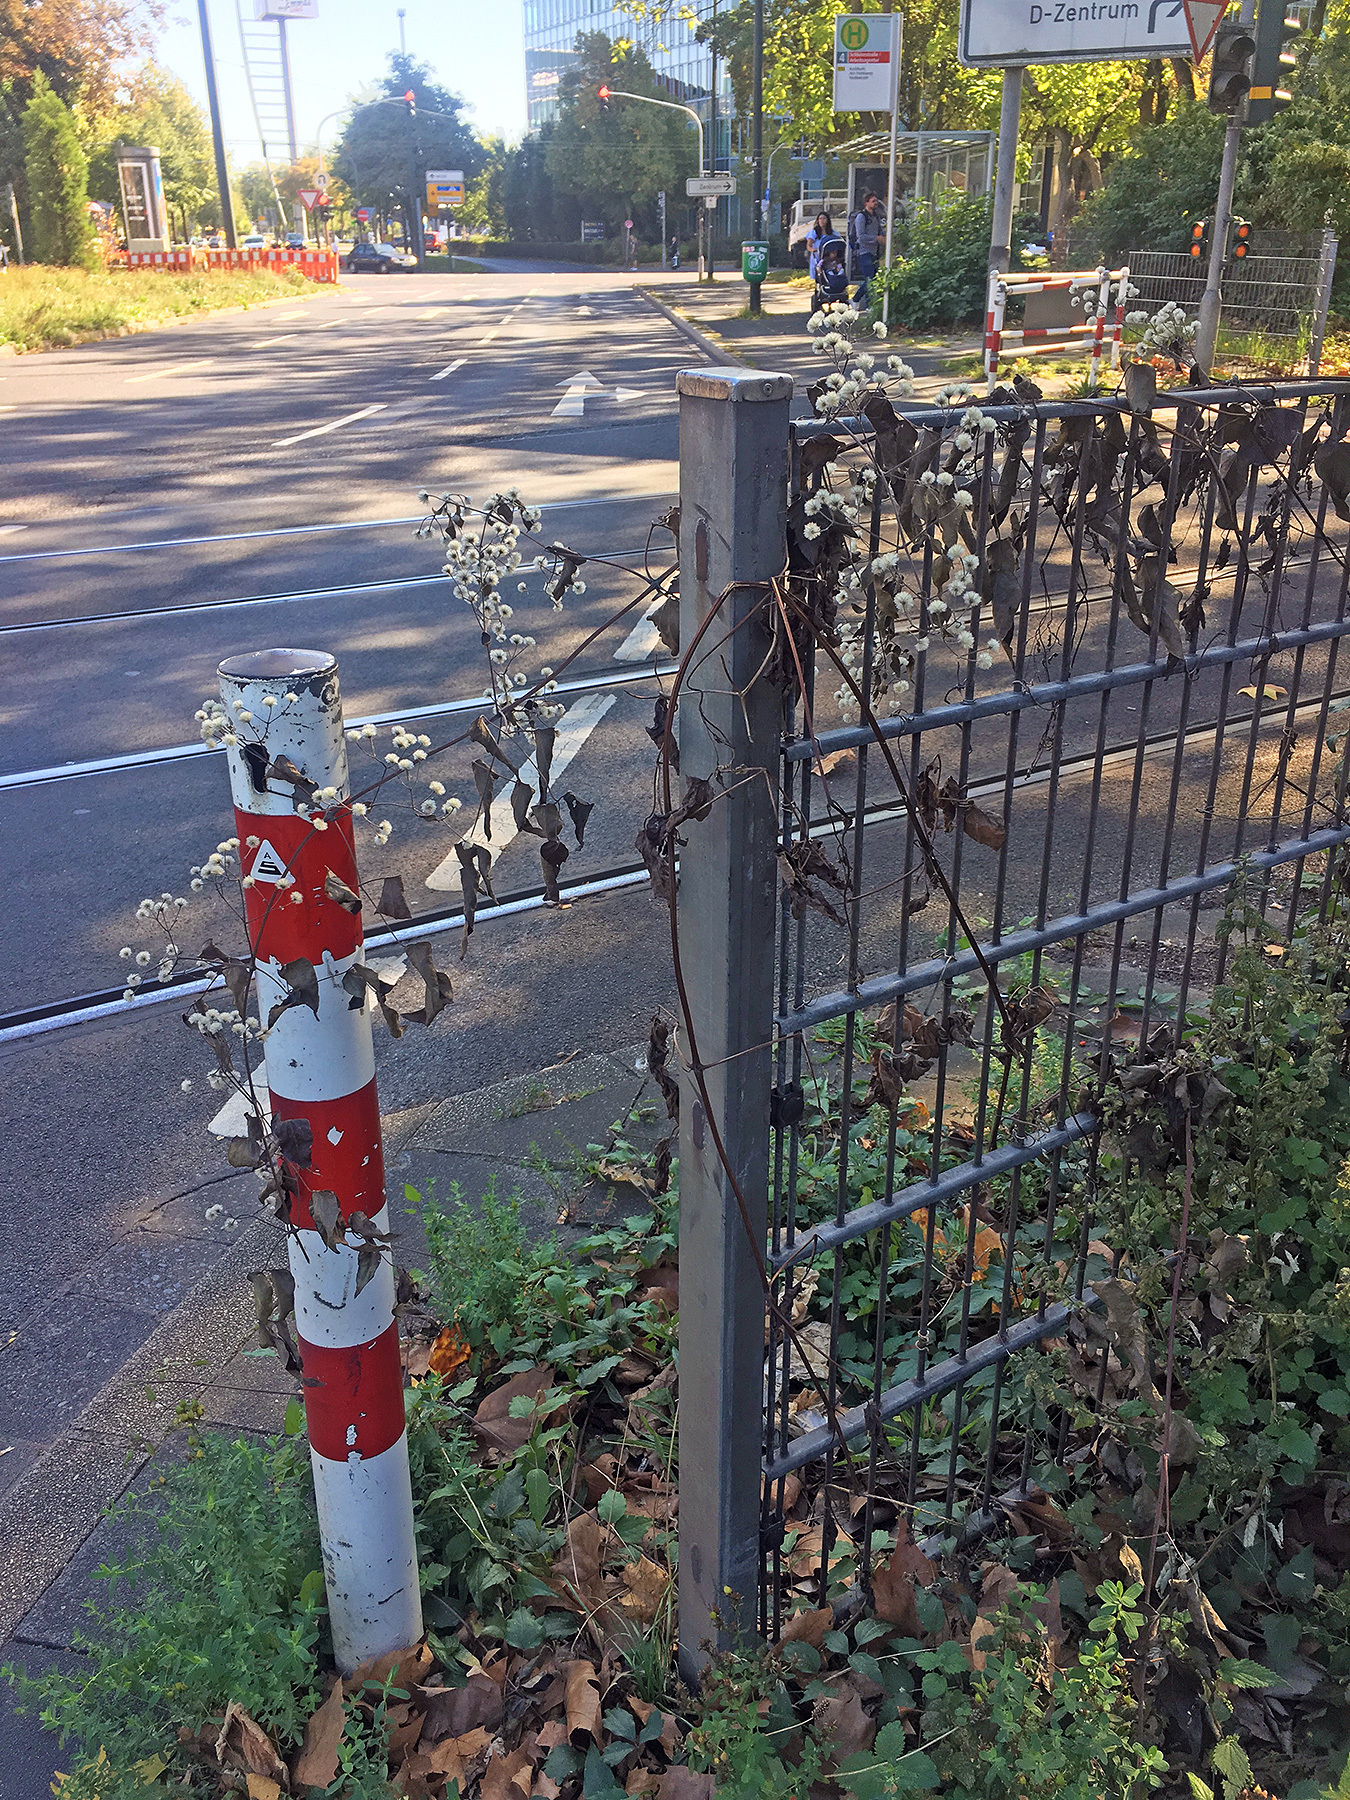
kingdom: Plantae
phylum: Tracheophyta
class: Magnoliopsida
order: Ranunculales
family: Ranunculaceae
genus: Clematis
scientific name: Clematis vitalba
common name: Evergreen clematis
